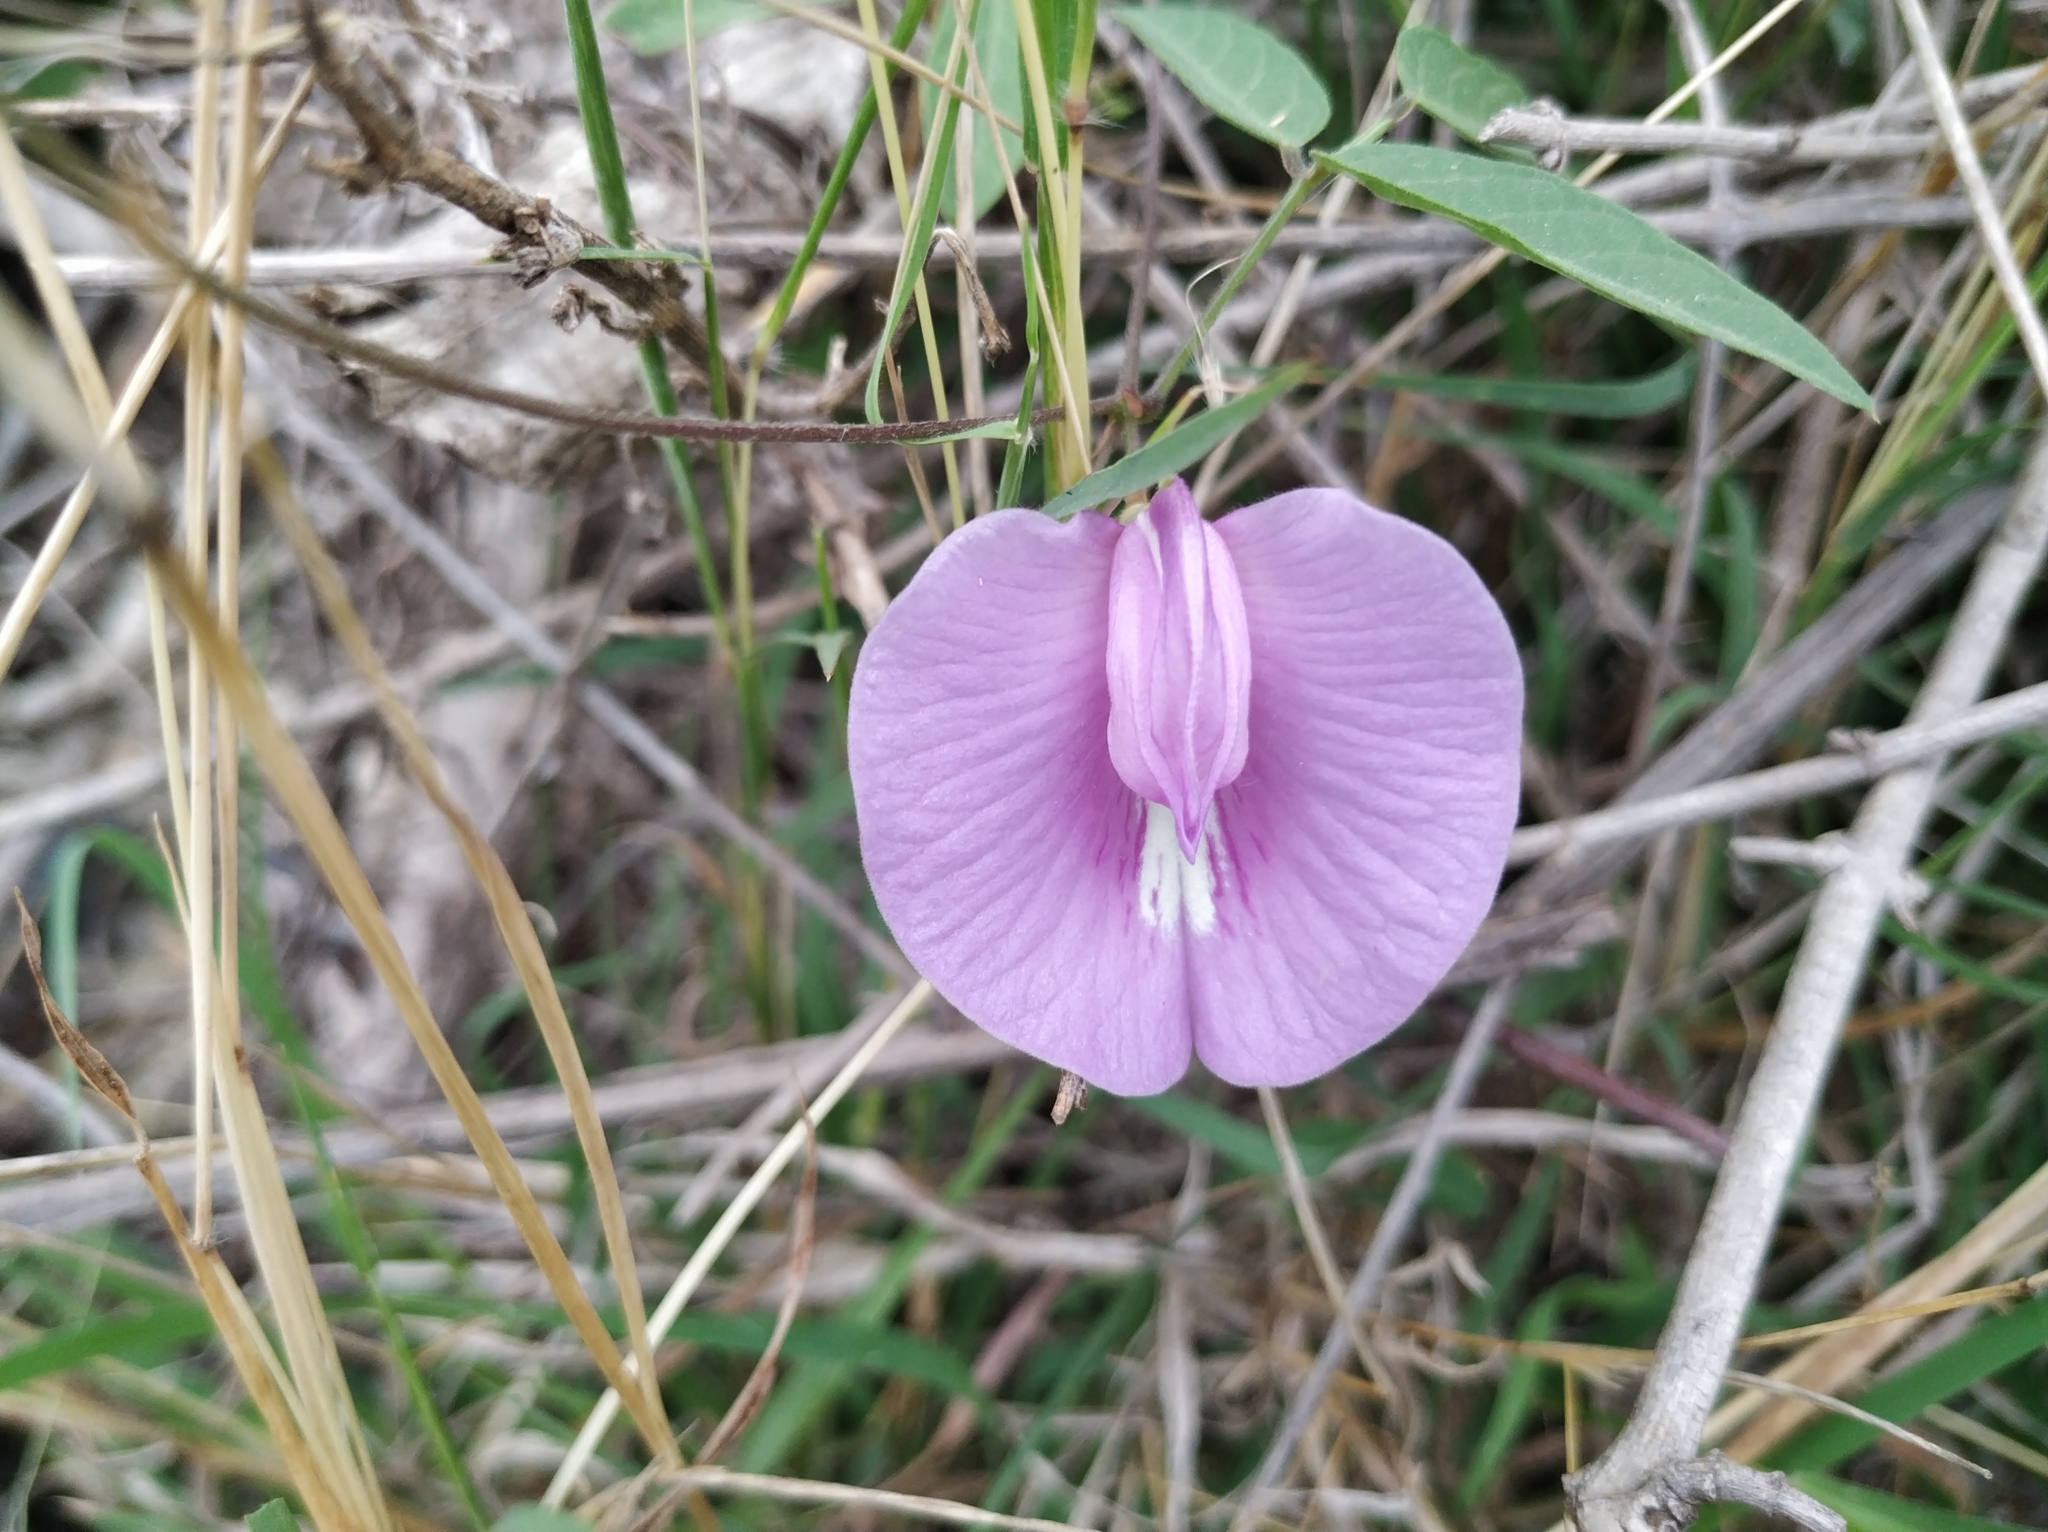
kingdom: Plantae
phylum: Tracheophyta
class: Magnoliopsida
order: Fabales
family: Fabaceae
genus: Centrosema
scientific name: Centrosema virginianum
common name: Butterfly-pea
